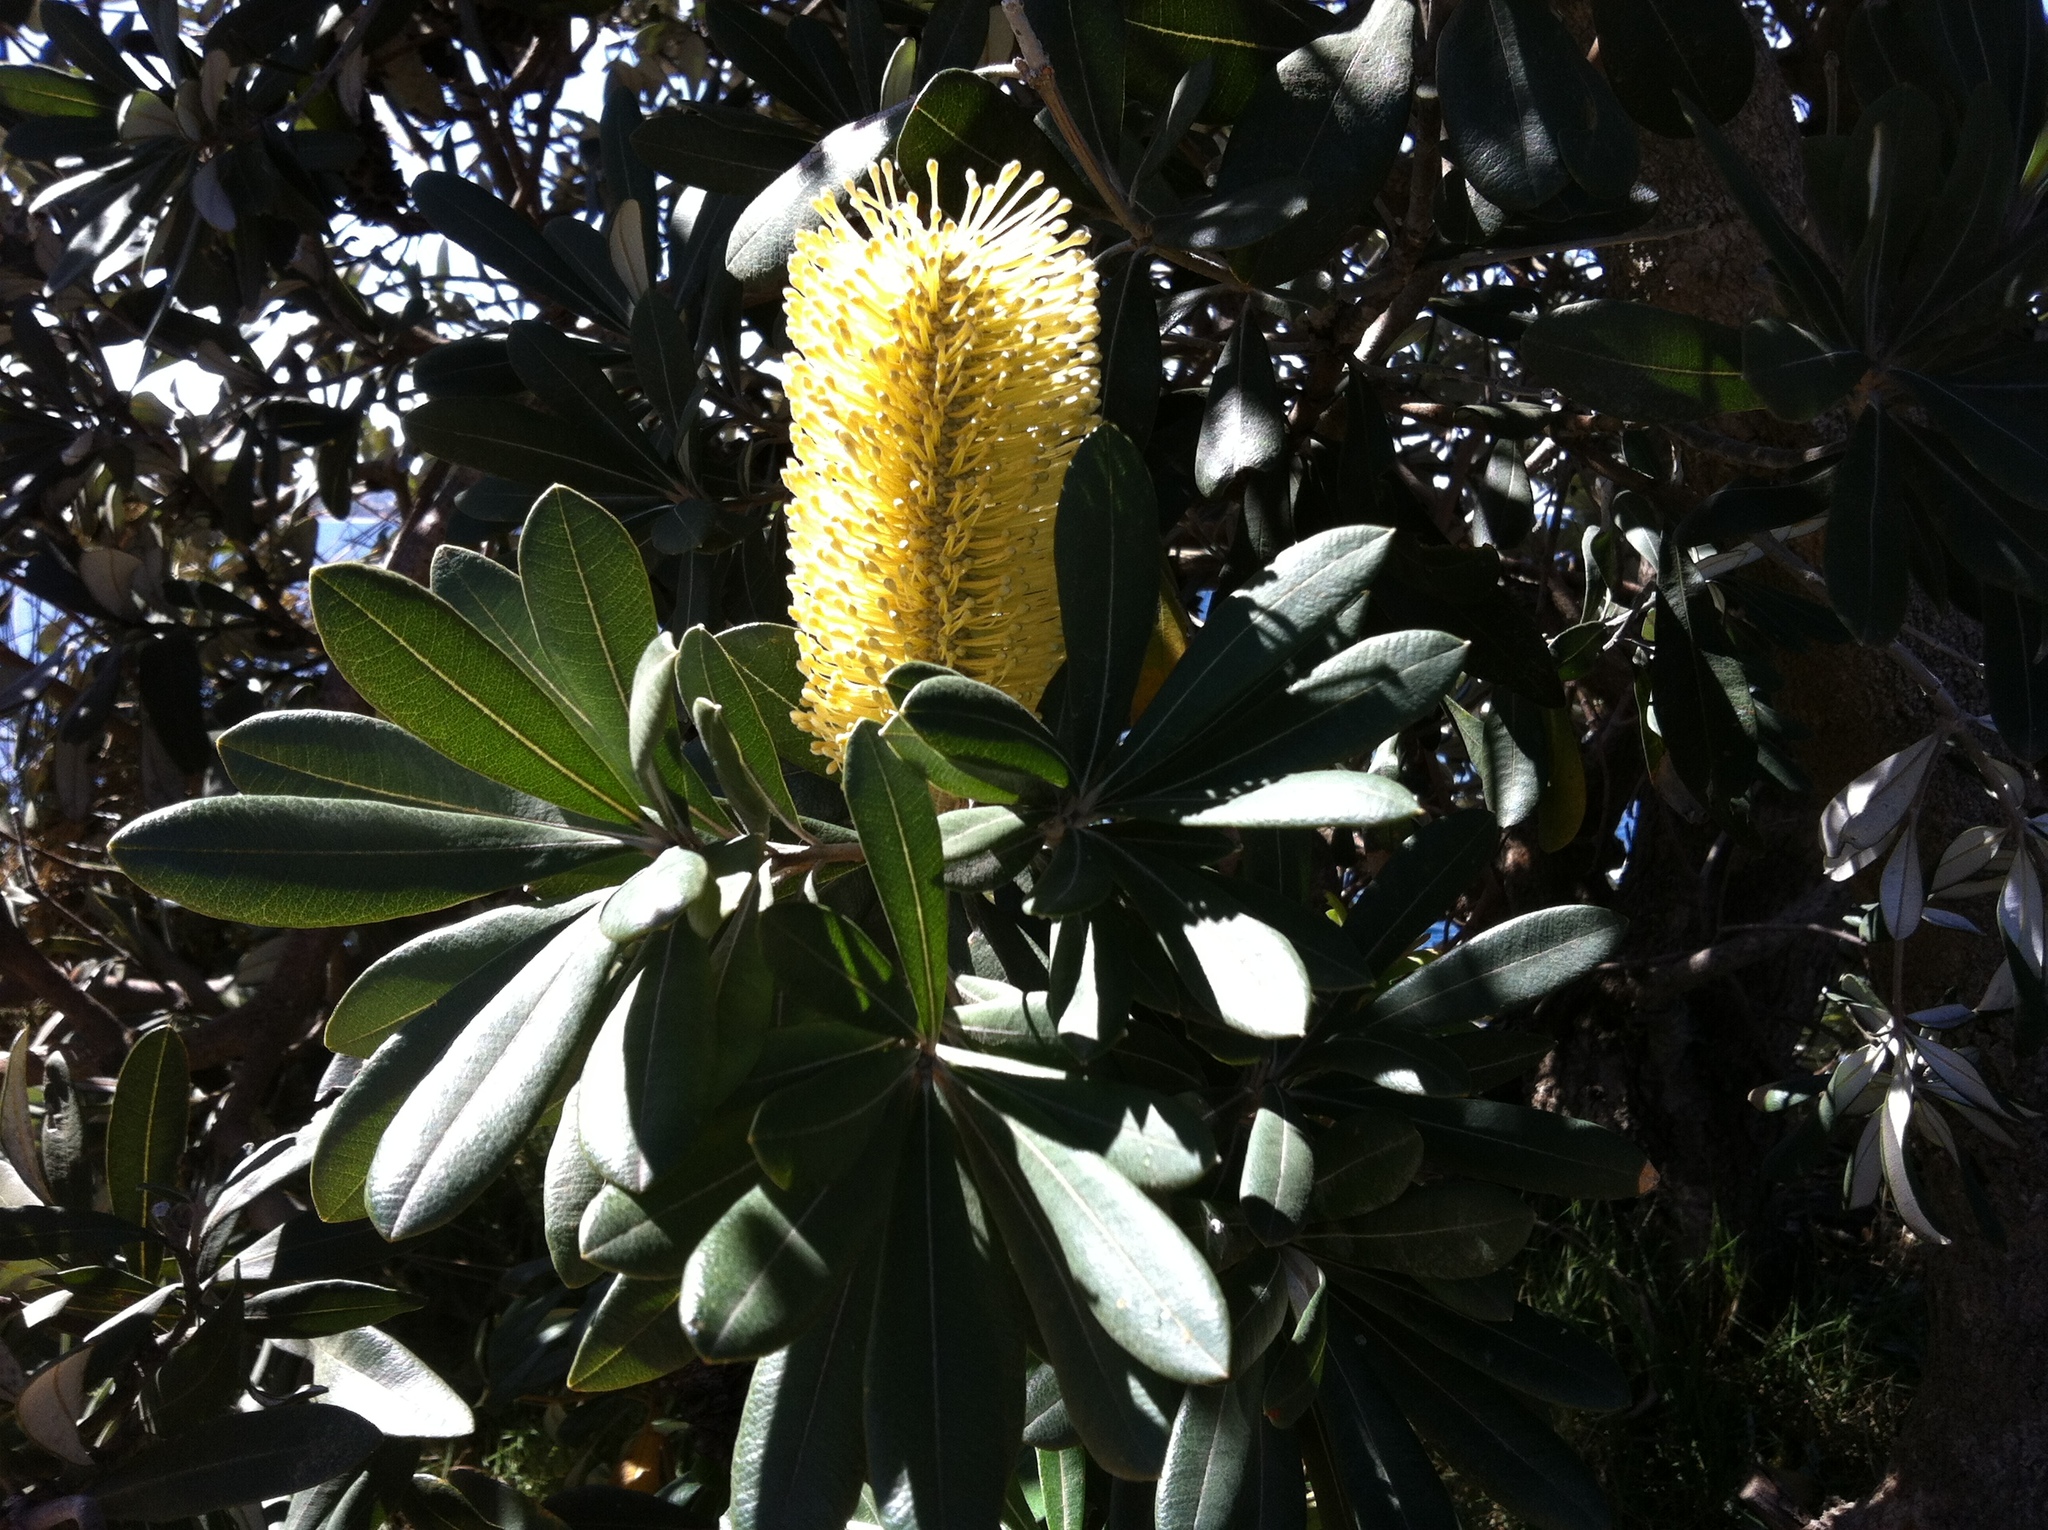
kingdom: Plantae
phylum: Tracheophyta
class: Magnoliopsida
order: Proteales
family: Proteaceae
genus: Banksia
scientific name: Banksia integrifolia
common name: White-honeysuckle
